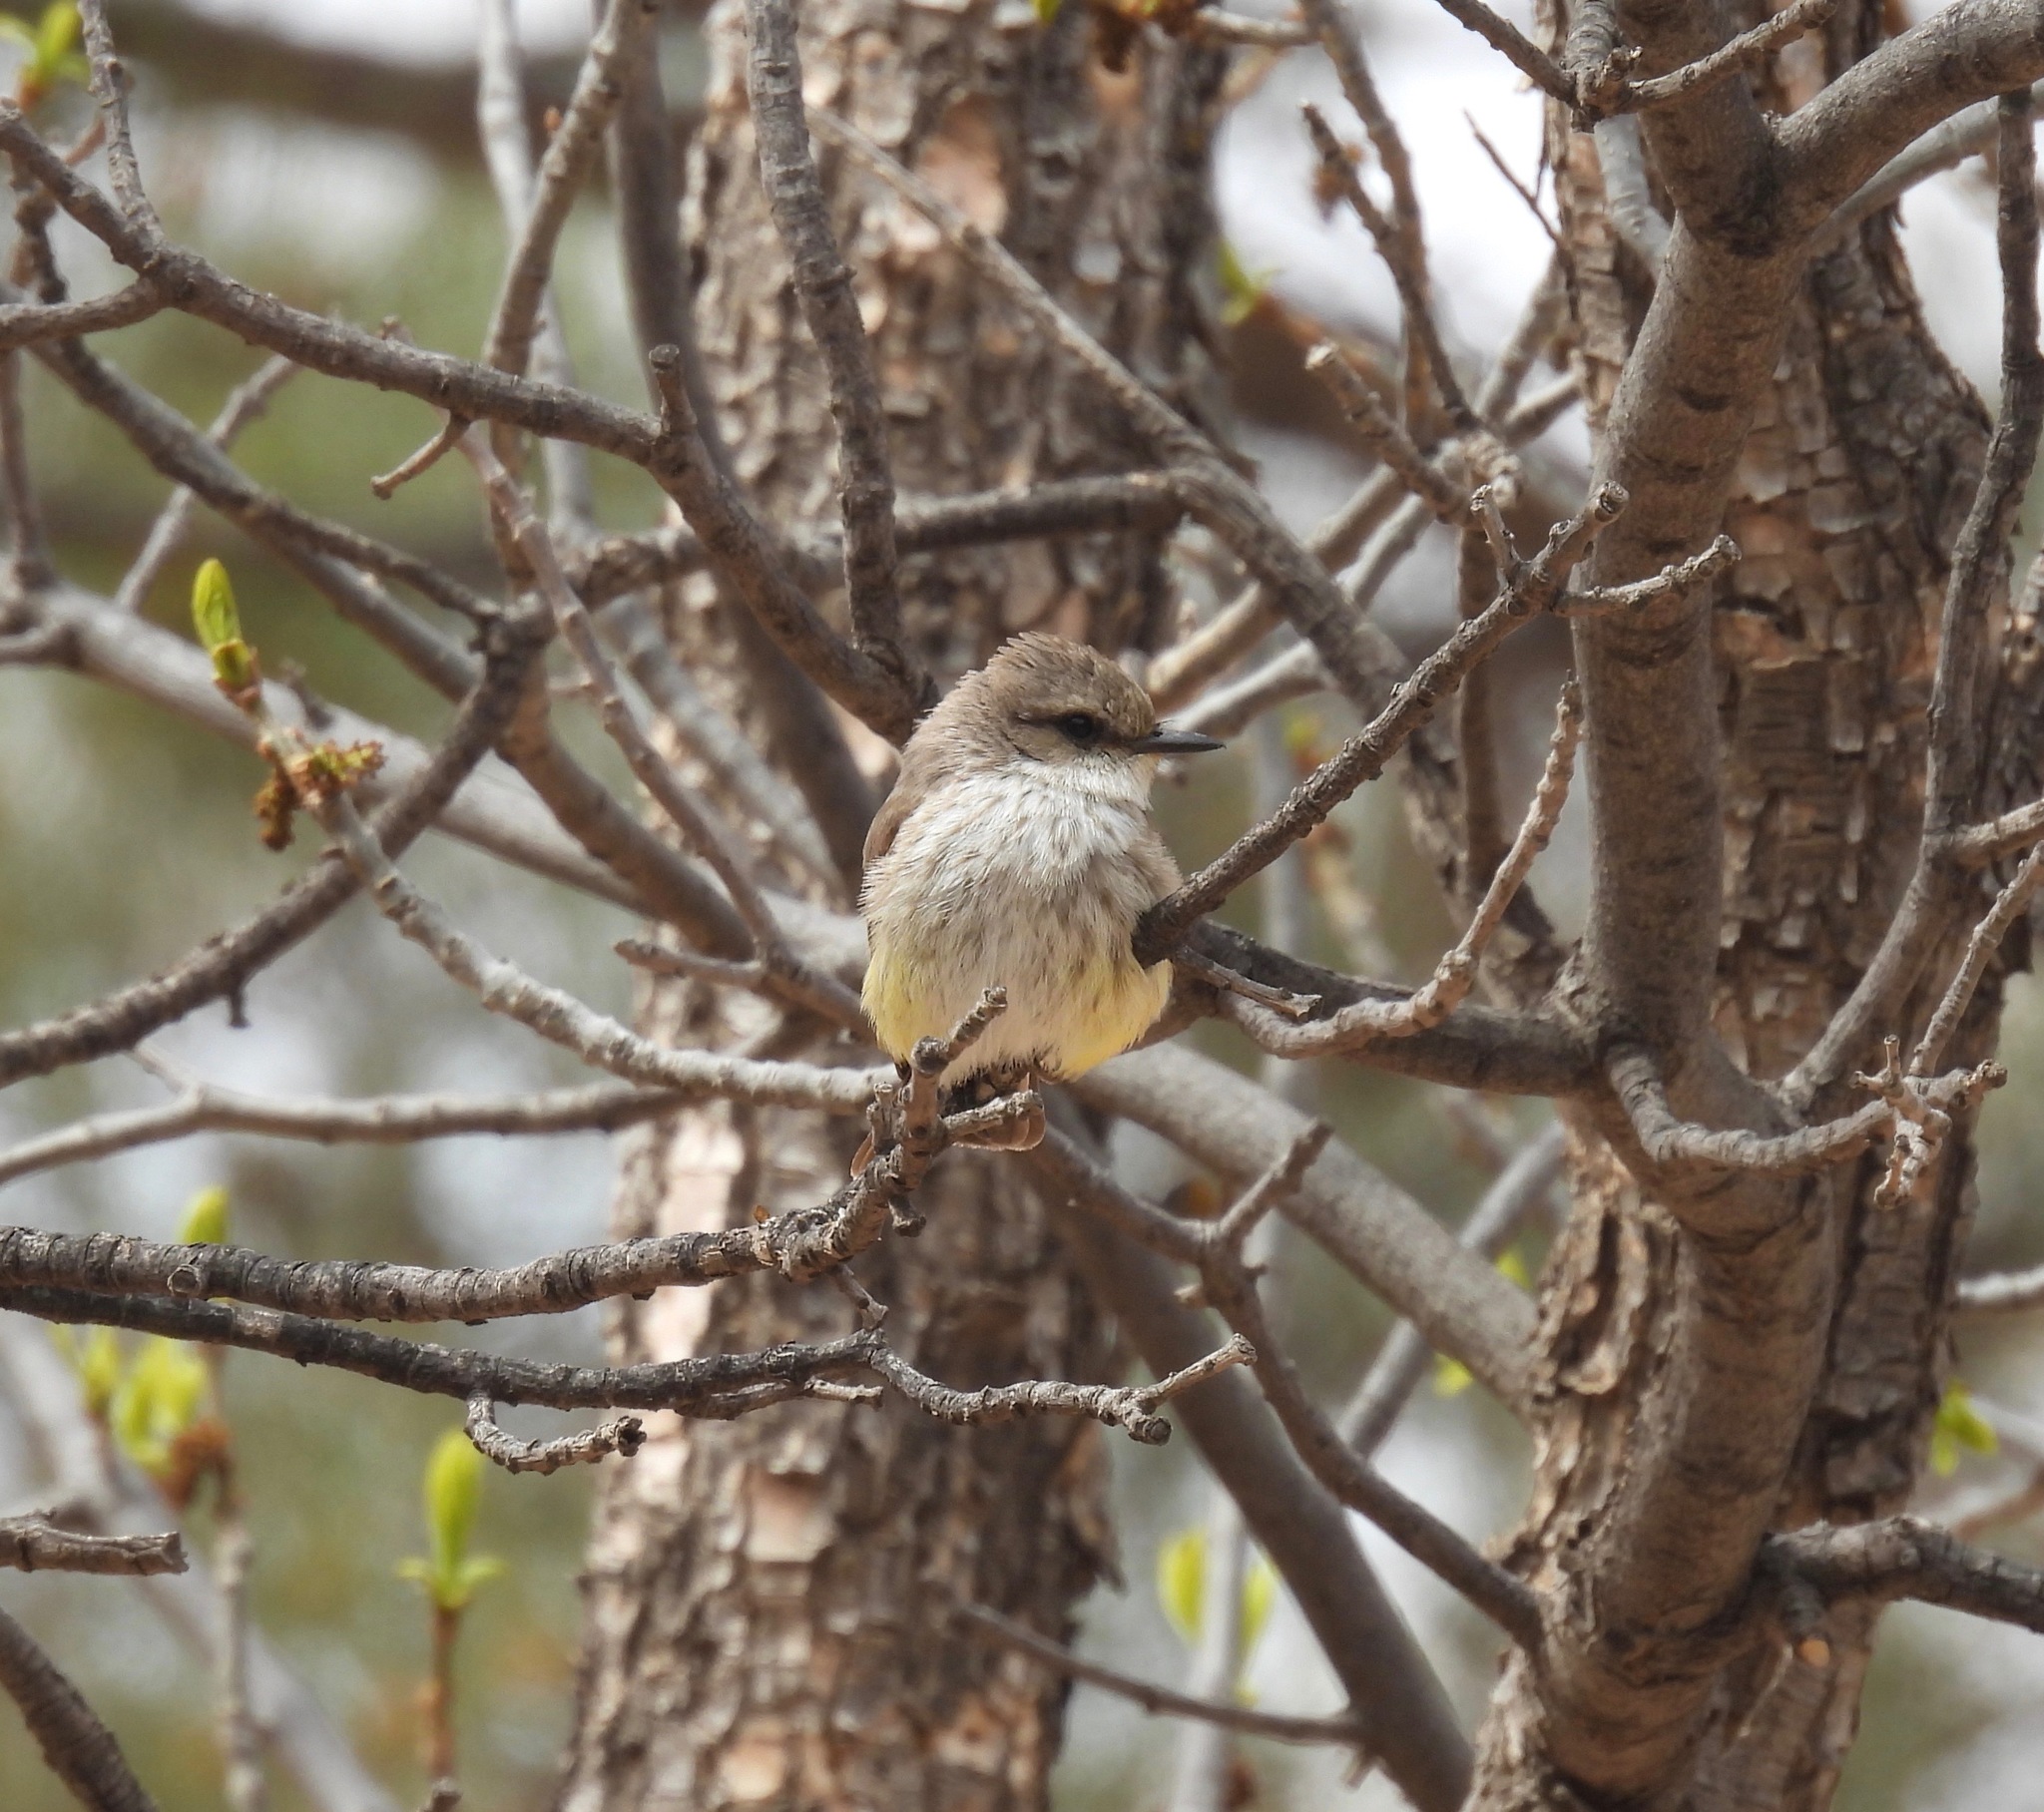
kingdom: Animalia
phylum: Chordata
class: Aves
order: Passeriformes
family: Tyrannidae
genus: Pyrocephalus
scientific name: Pyrocephalus rubinus
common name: Vermilion flycatcher
